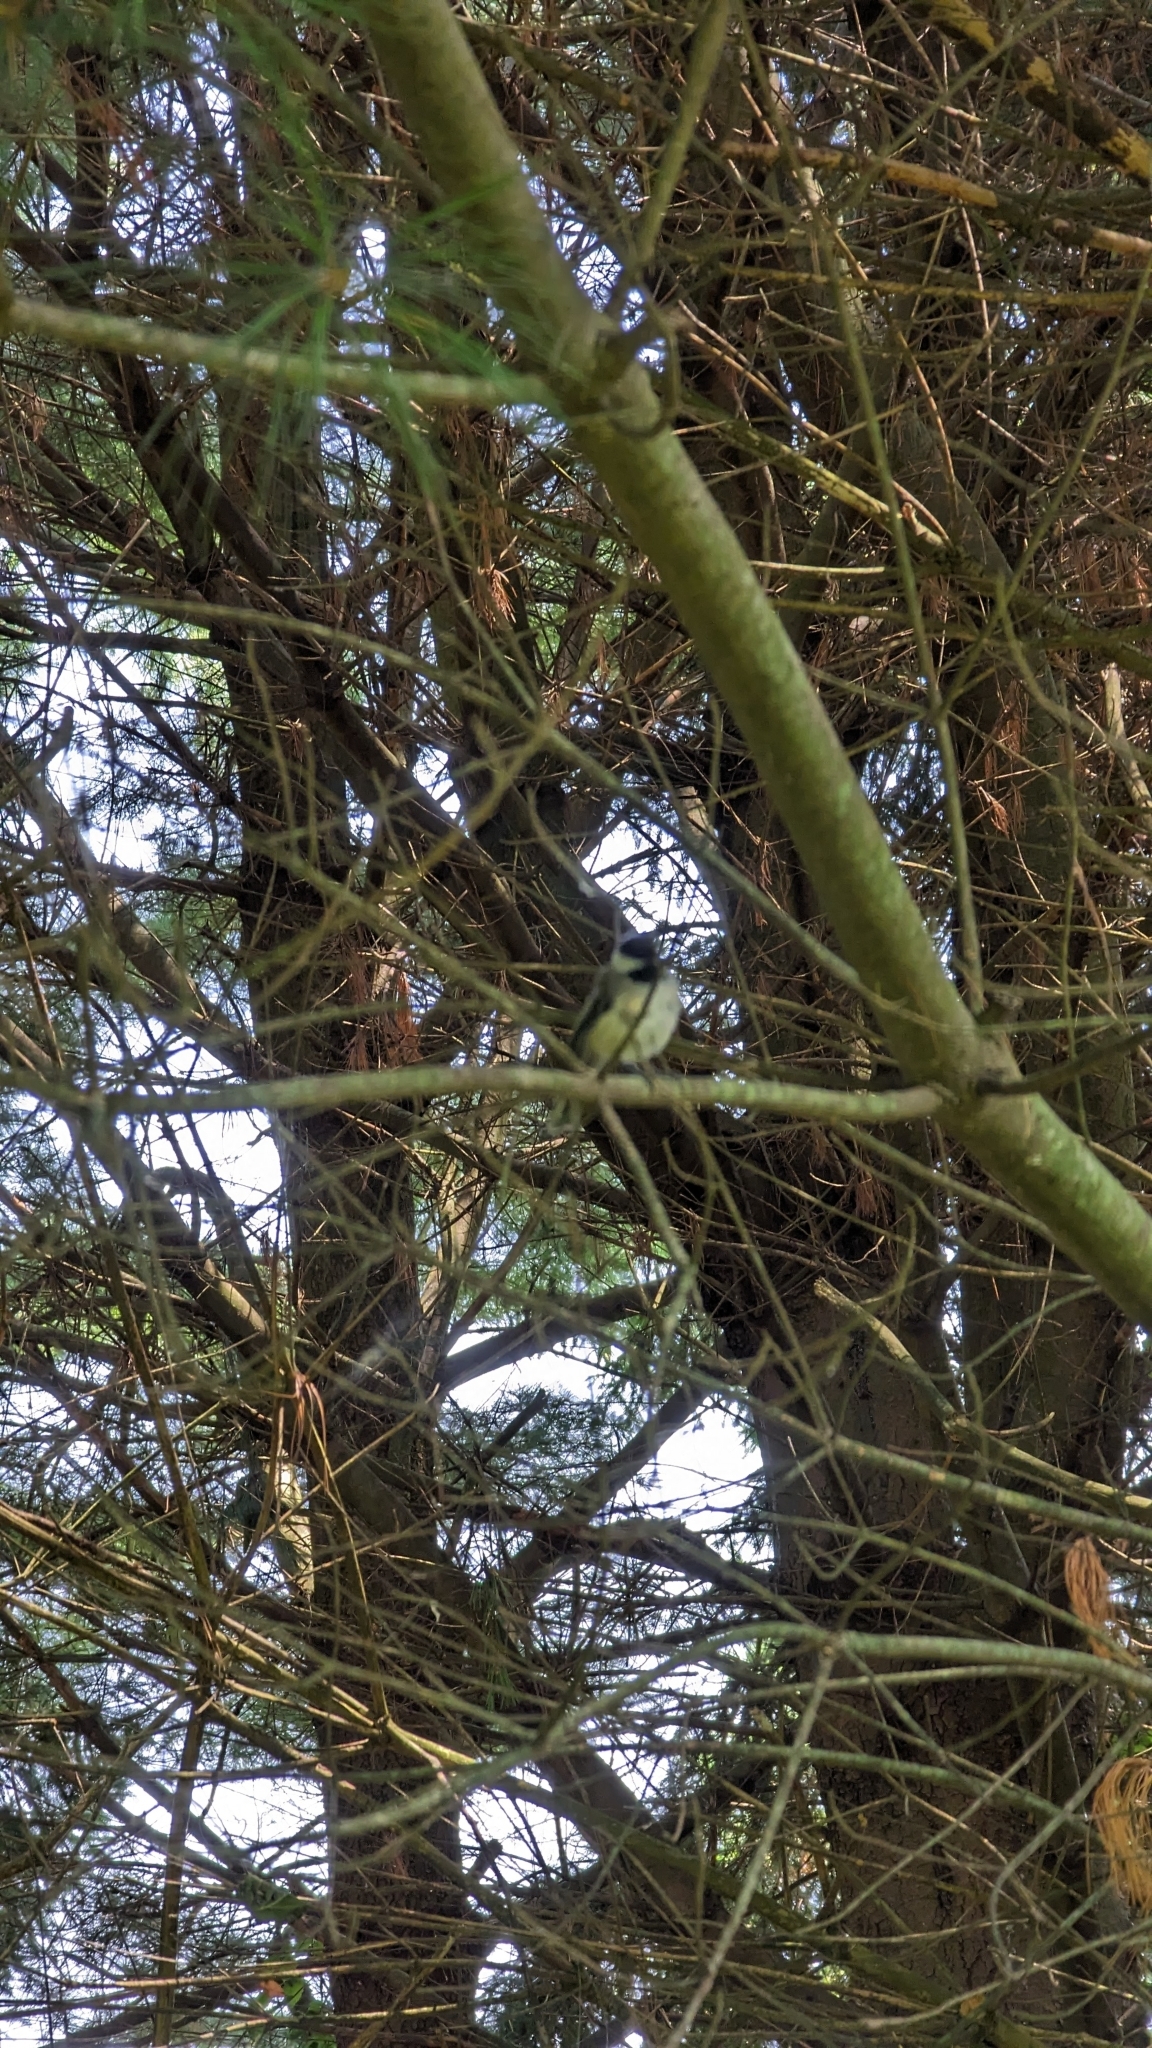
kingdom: Animalia
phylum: Chordata
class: Aves
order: Passeriformes
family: Paridae
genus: Poecile
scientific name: Poecile atricapillus
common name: Black-capped chickadee
